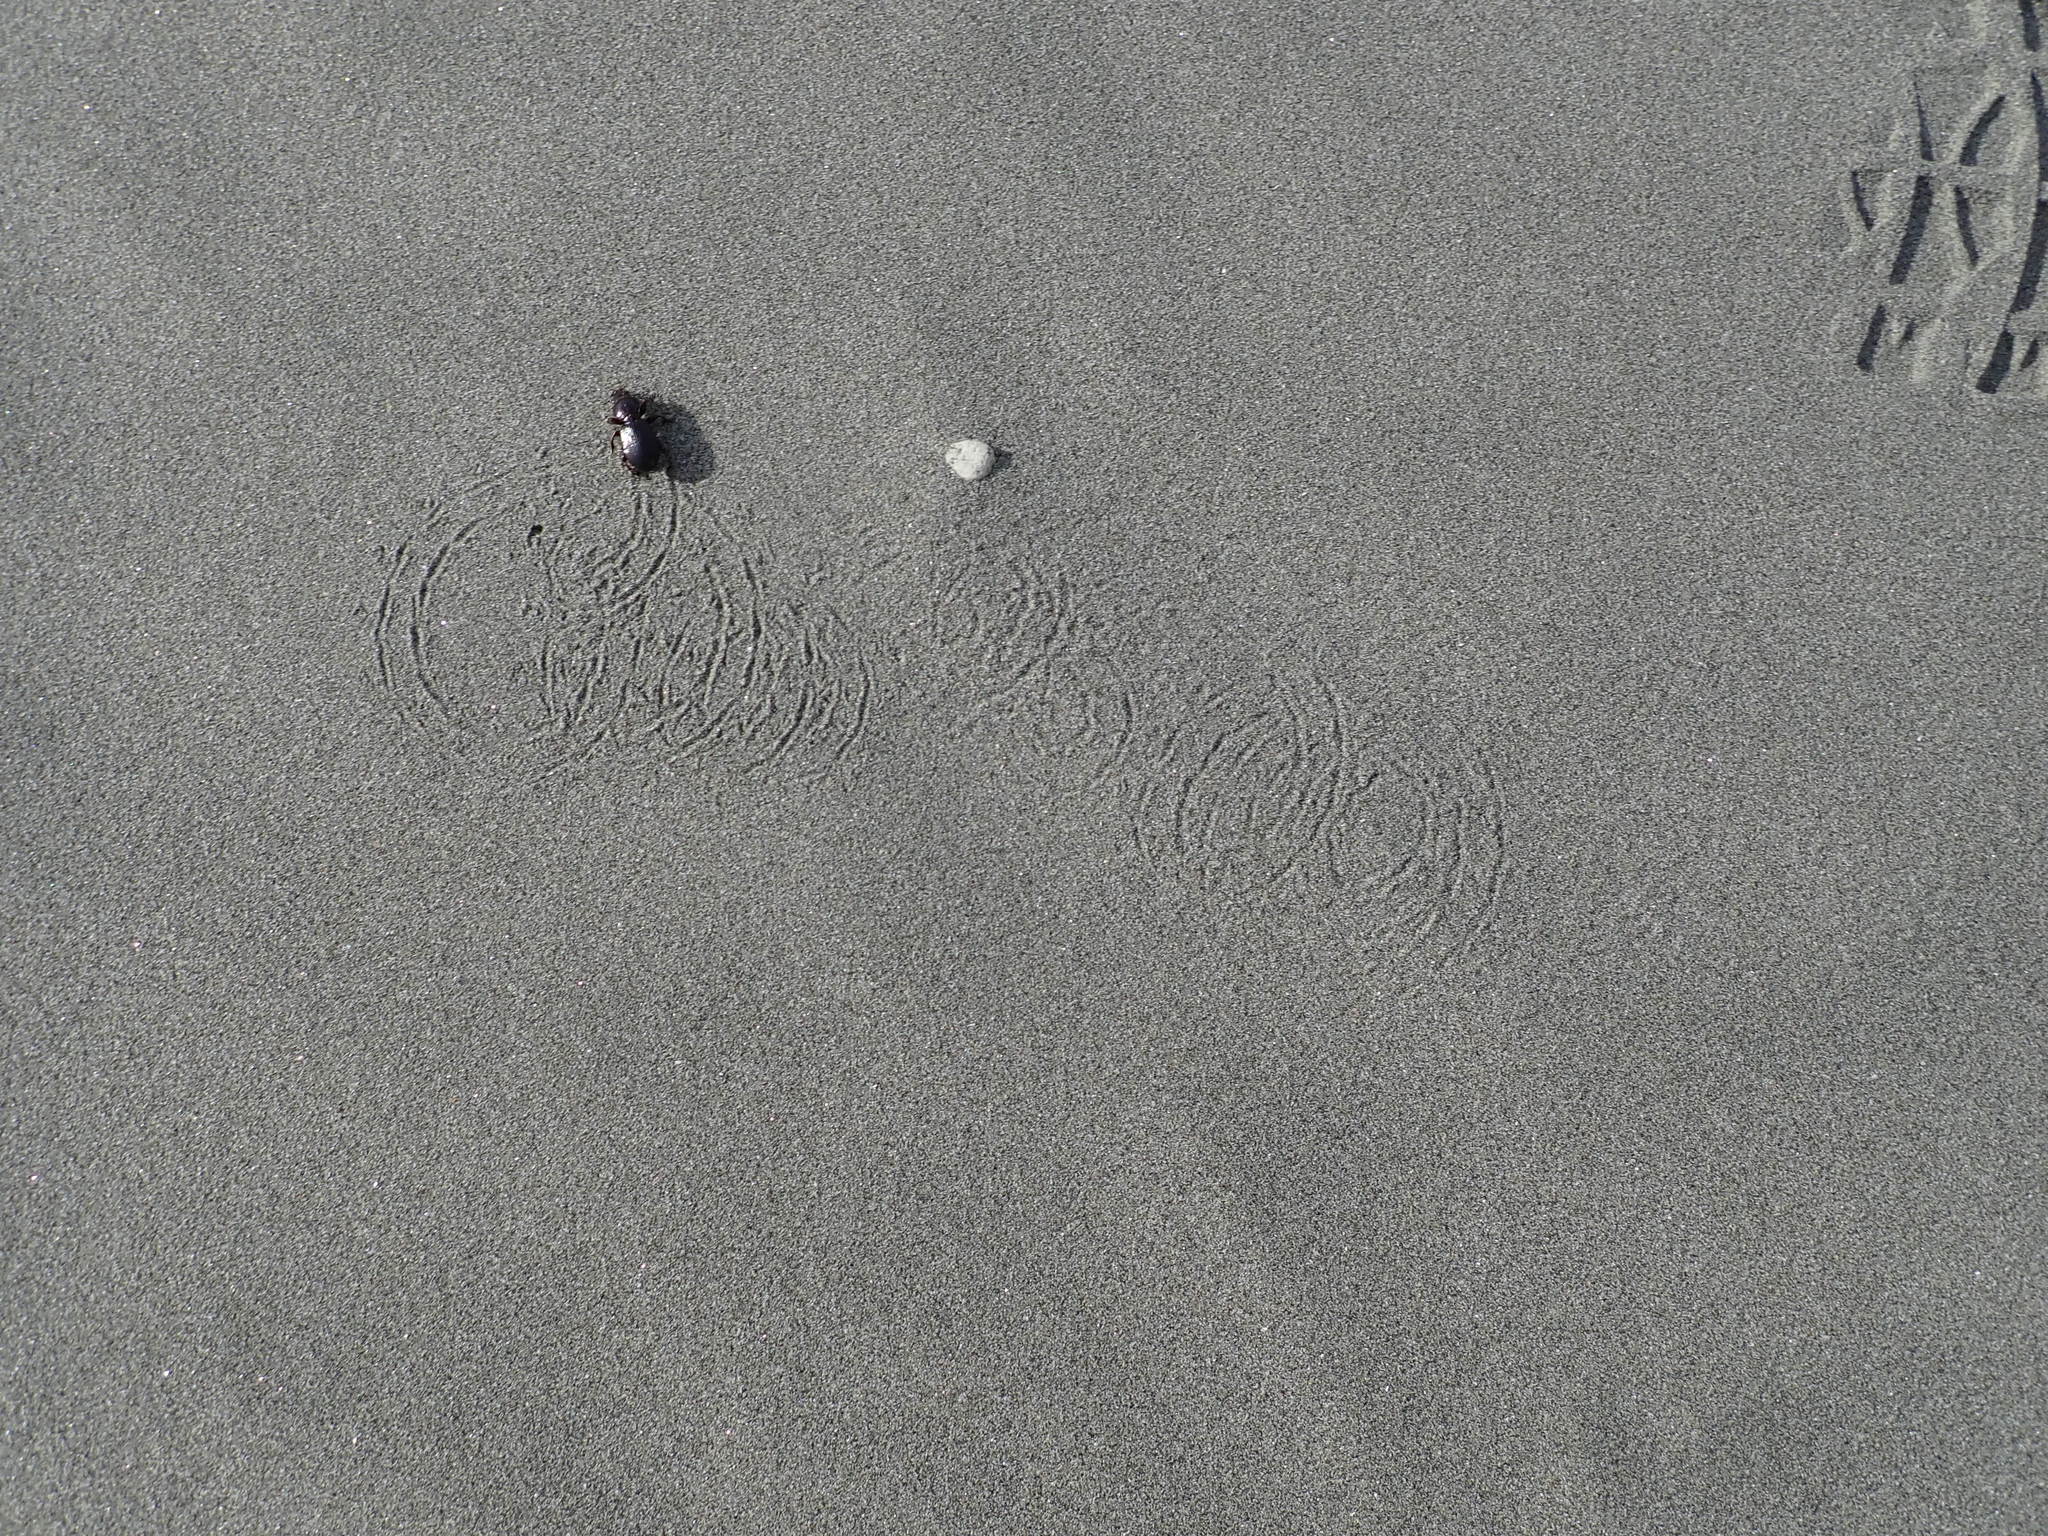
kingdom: Animalia
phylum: Arthropoda
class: Insecta
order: Coleoptera
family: Carabidae
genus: Mecodema
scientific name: Mecodema antarcticum
